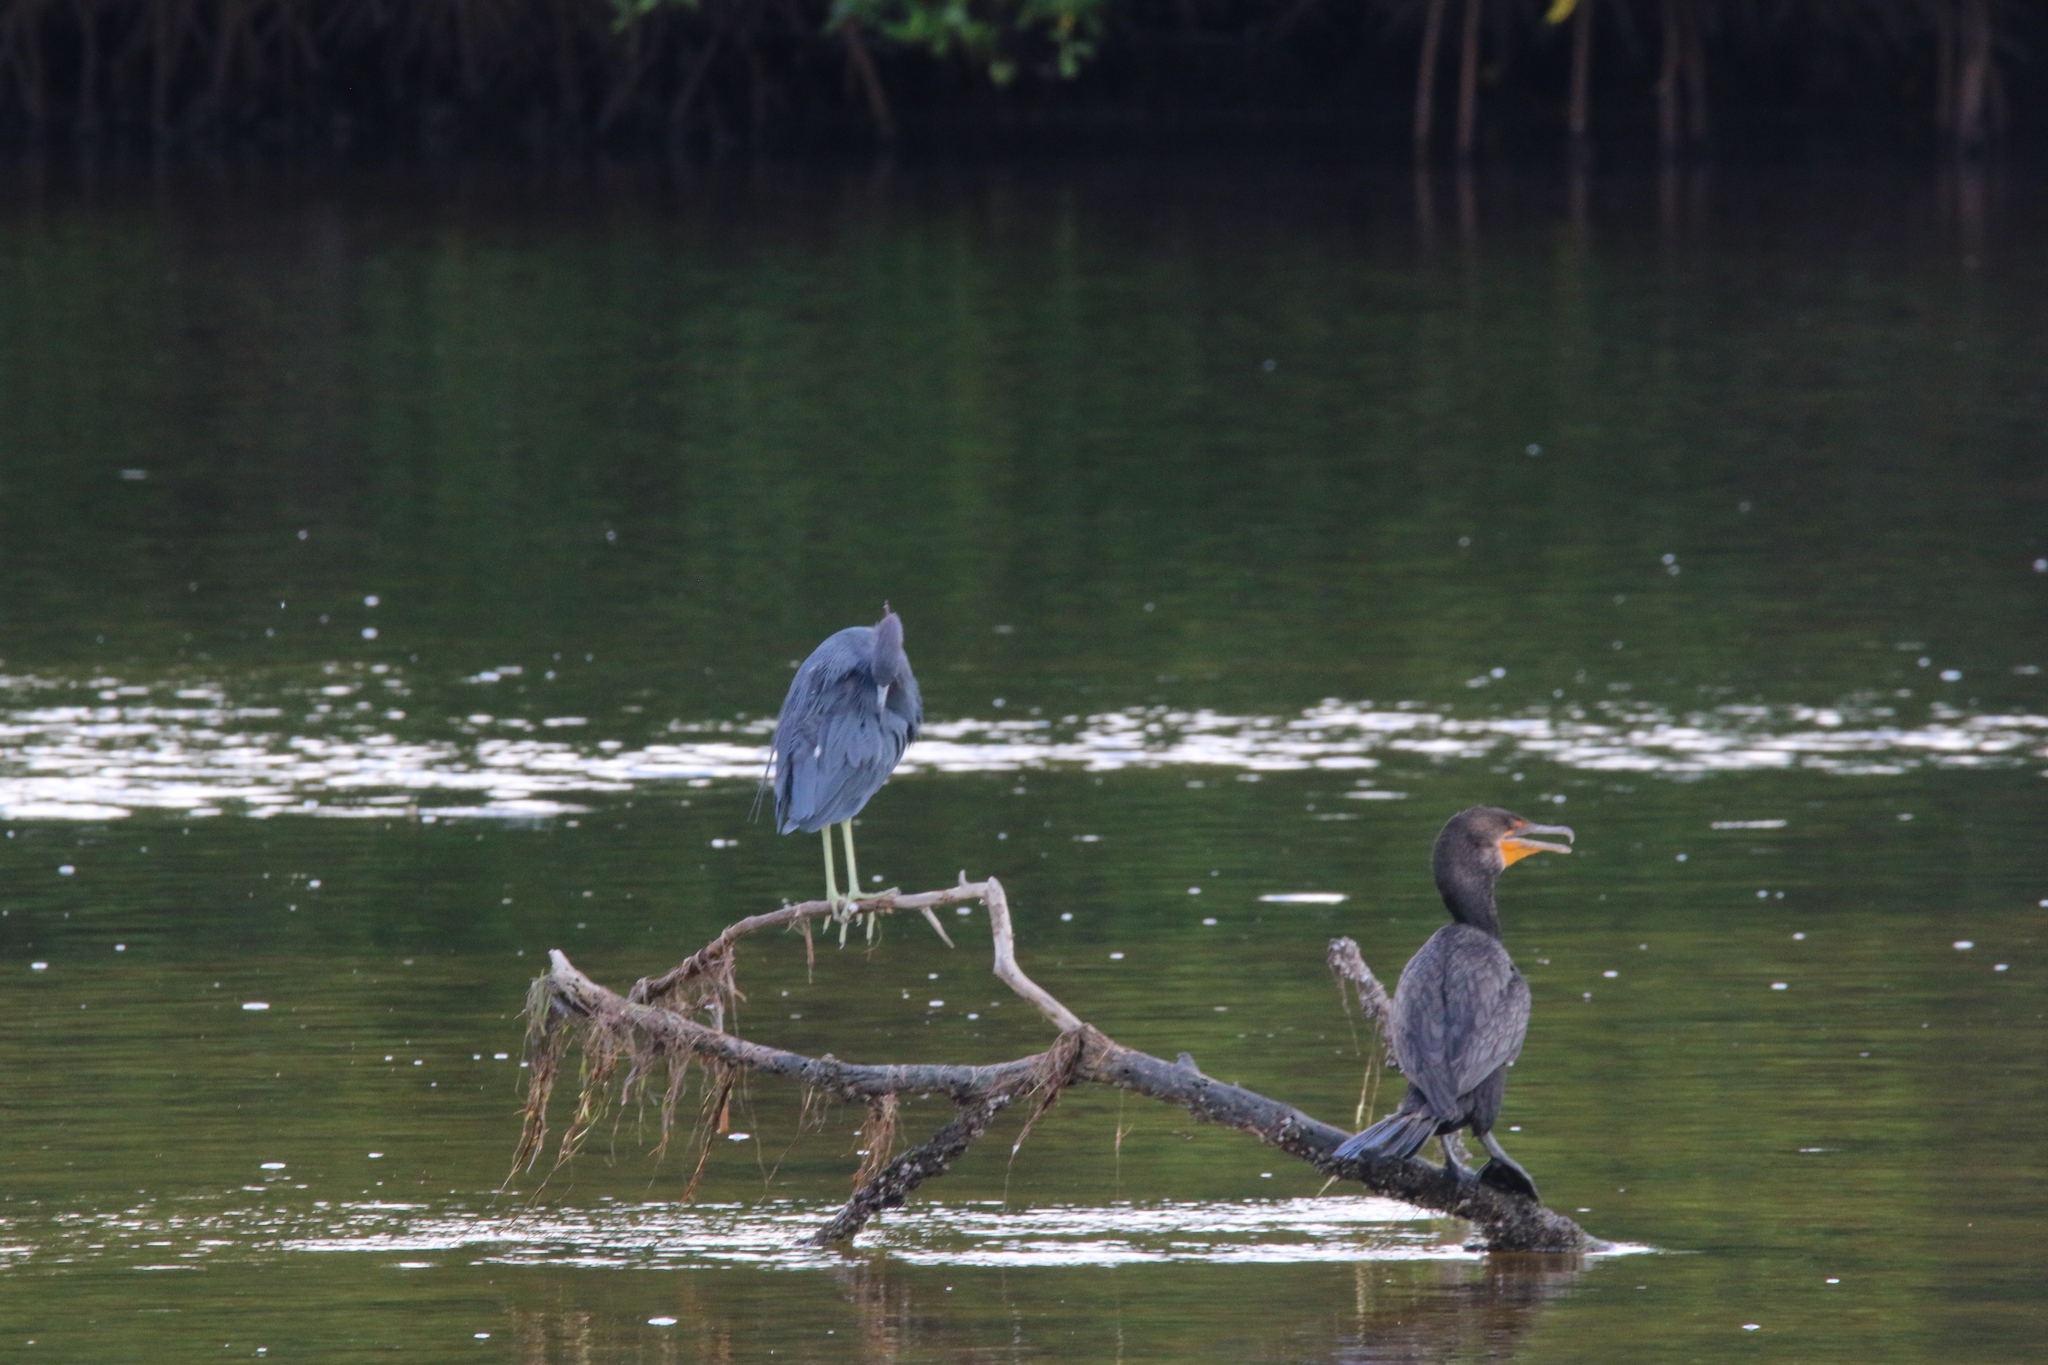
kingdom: Animalia
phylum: Chordata
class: Aves
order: Pelecaniformes
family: Ardeidae
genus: Egretta
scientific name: Egretta caerulea
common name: Little blue heron
